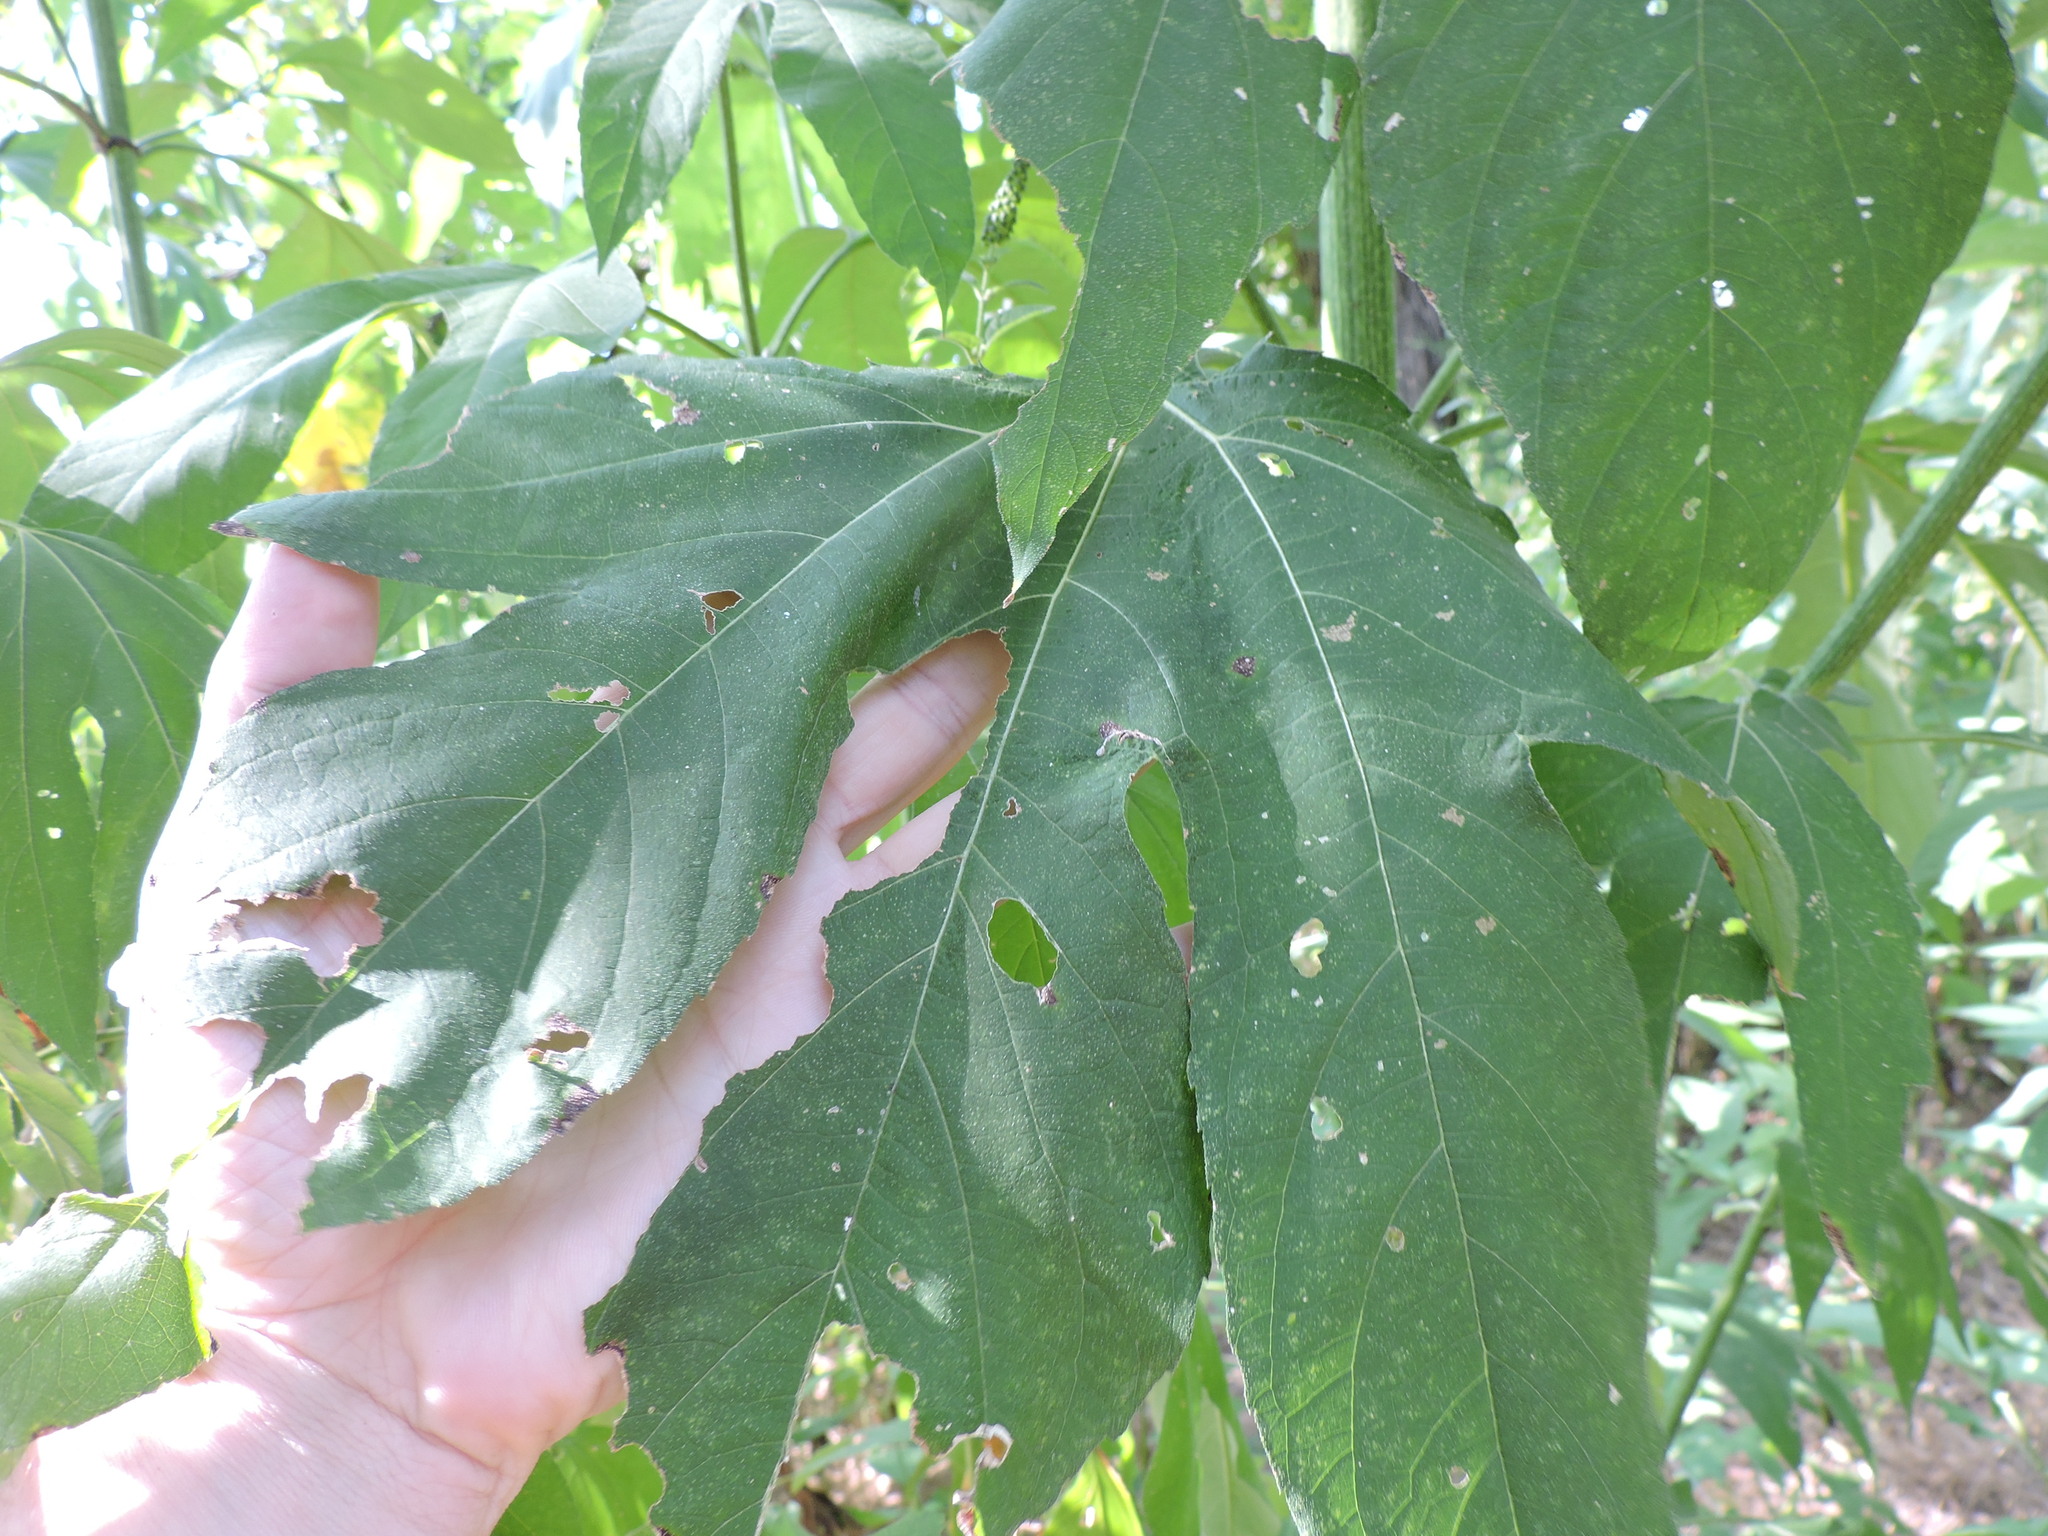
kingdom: Plantae
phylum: Tracheophyta
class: Magnoliopsida
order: Asterales
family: Asteraceae
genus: Ambrosia
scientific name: Ambrosia trifida
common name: Giant ragweed
